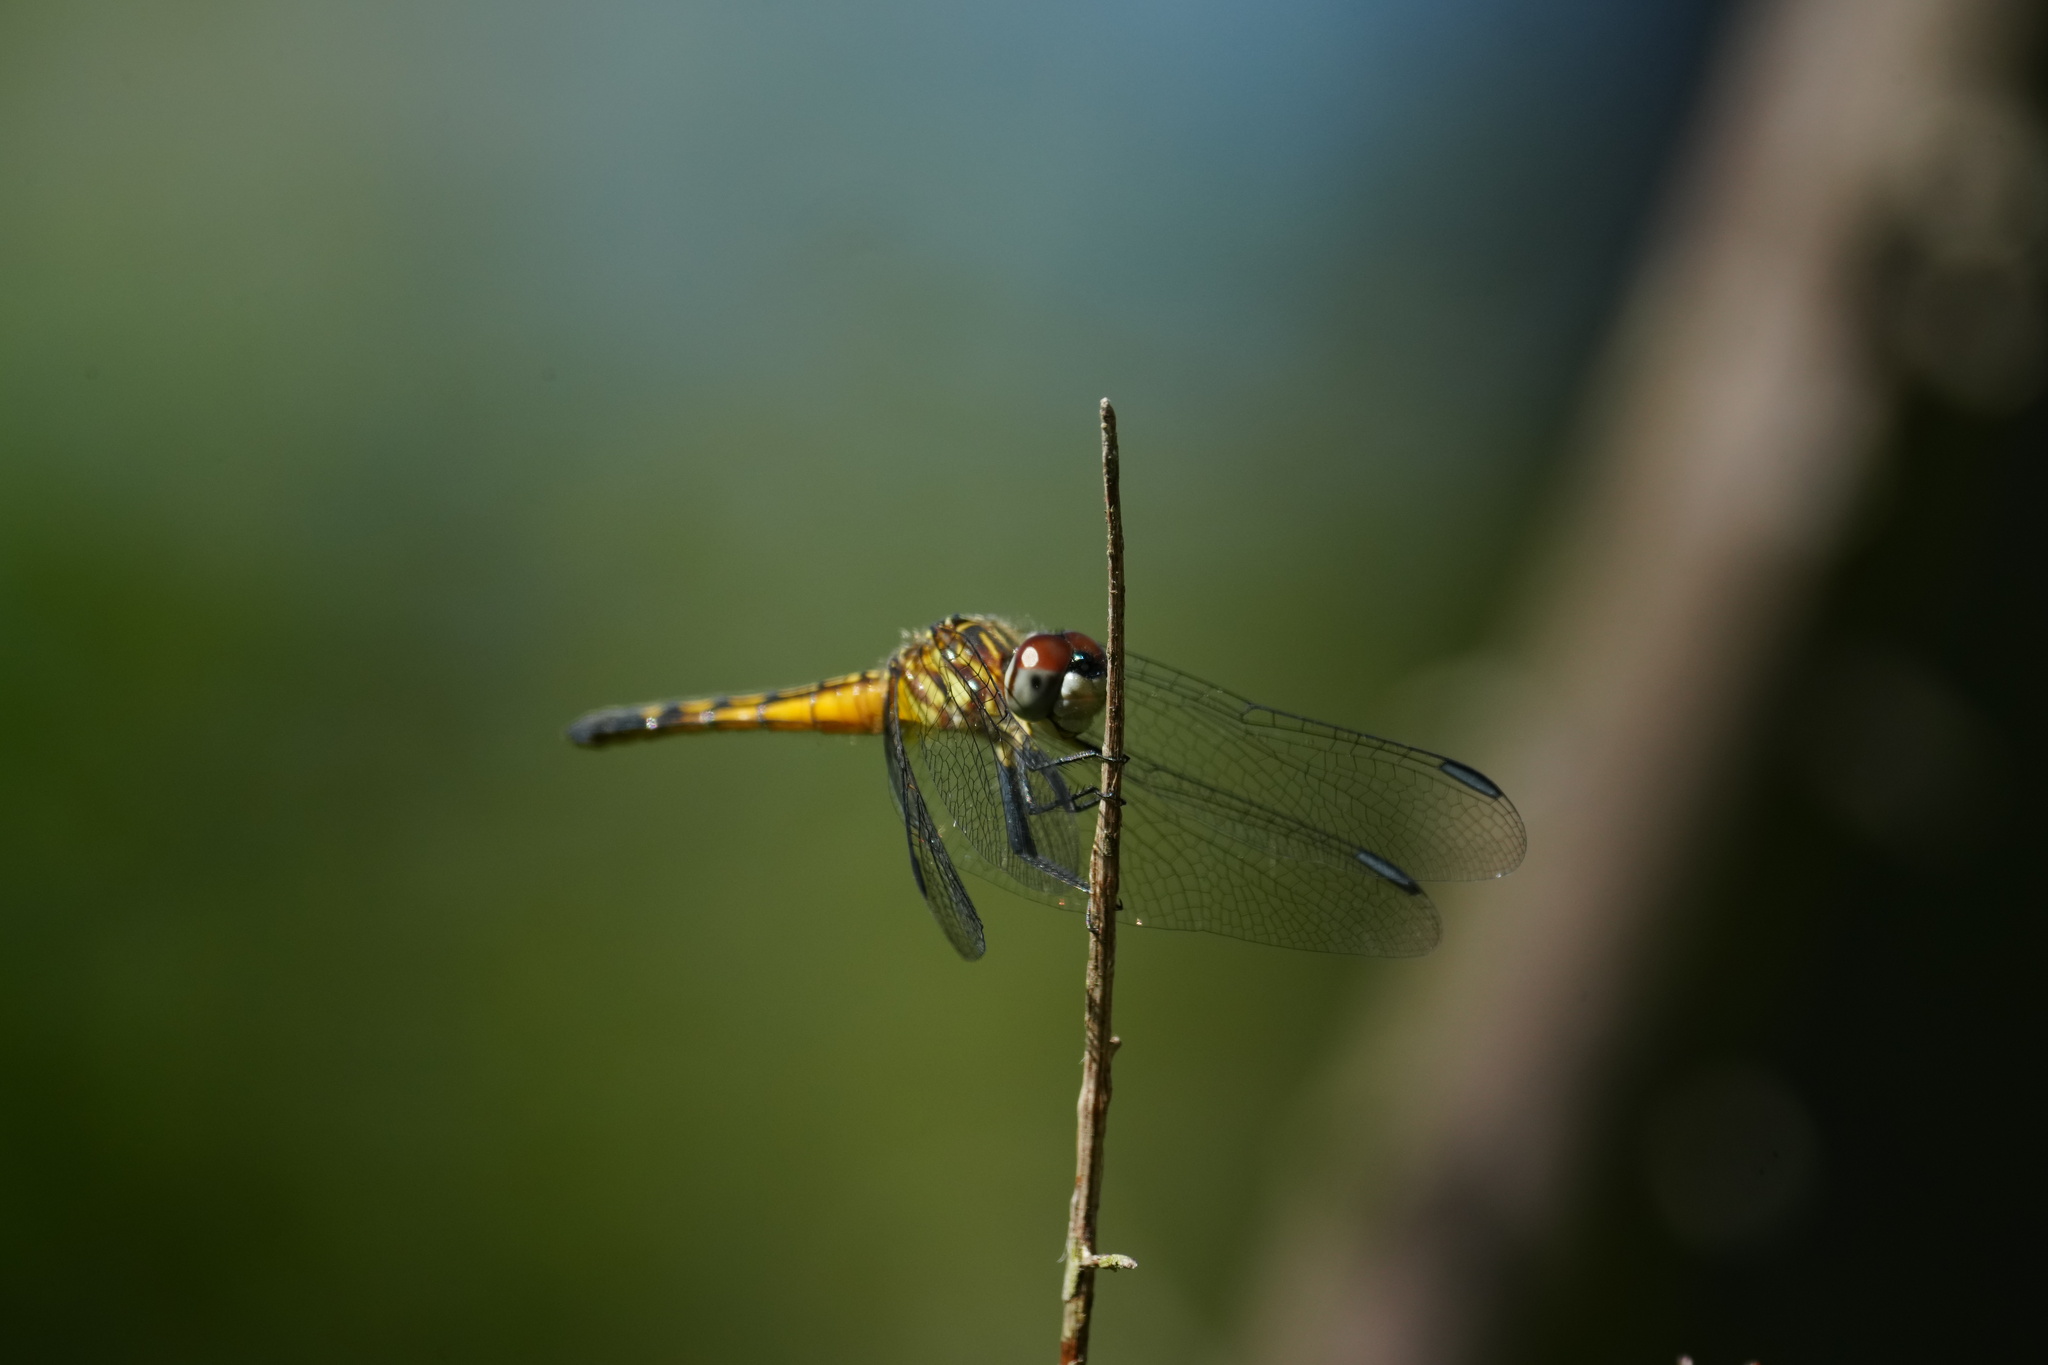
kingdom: Animalia
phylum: Arthropoda
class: Insecta
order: Odonata
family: Libellulidae
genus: Pachydiplax
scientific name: Pachydiplax longipennis
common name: Blue dasher
